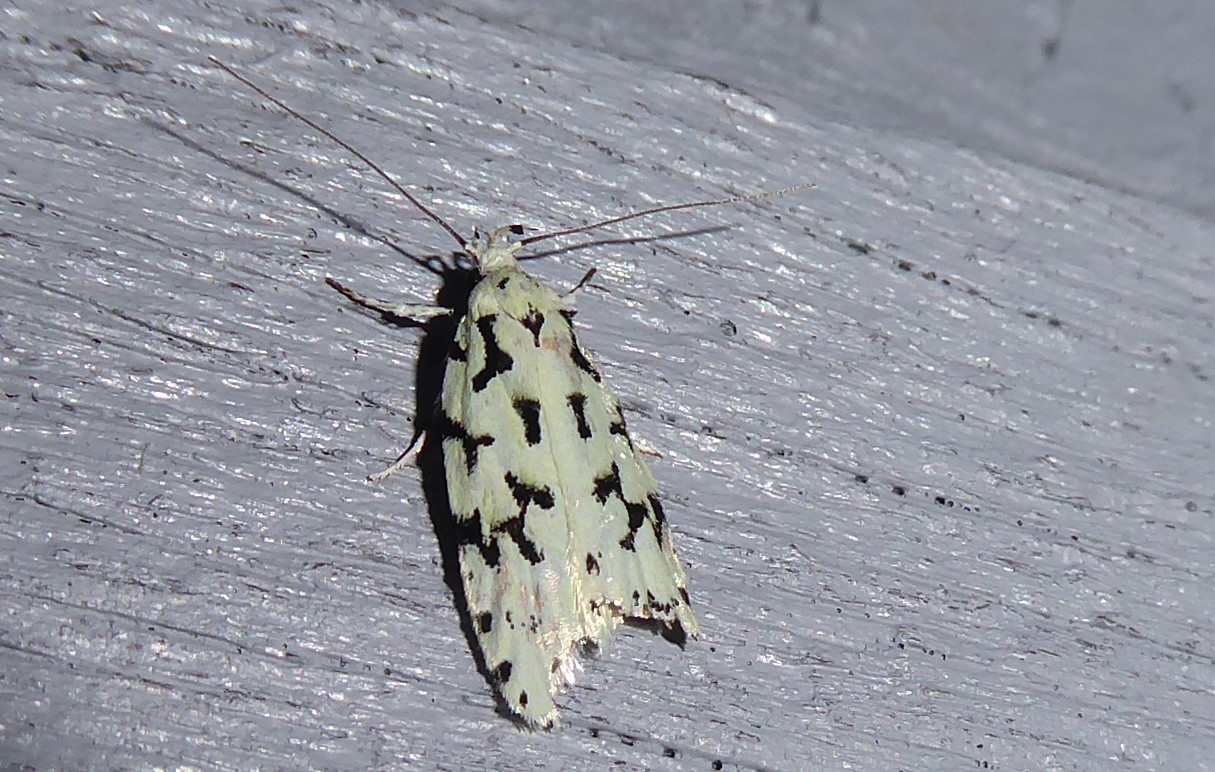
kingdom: Animalia
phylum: Arthropoda
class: Insecta
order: Lepidoptera
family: Oecophoridae
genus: Izatha
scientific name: Izatha huttoni
